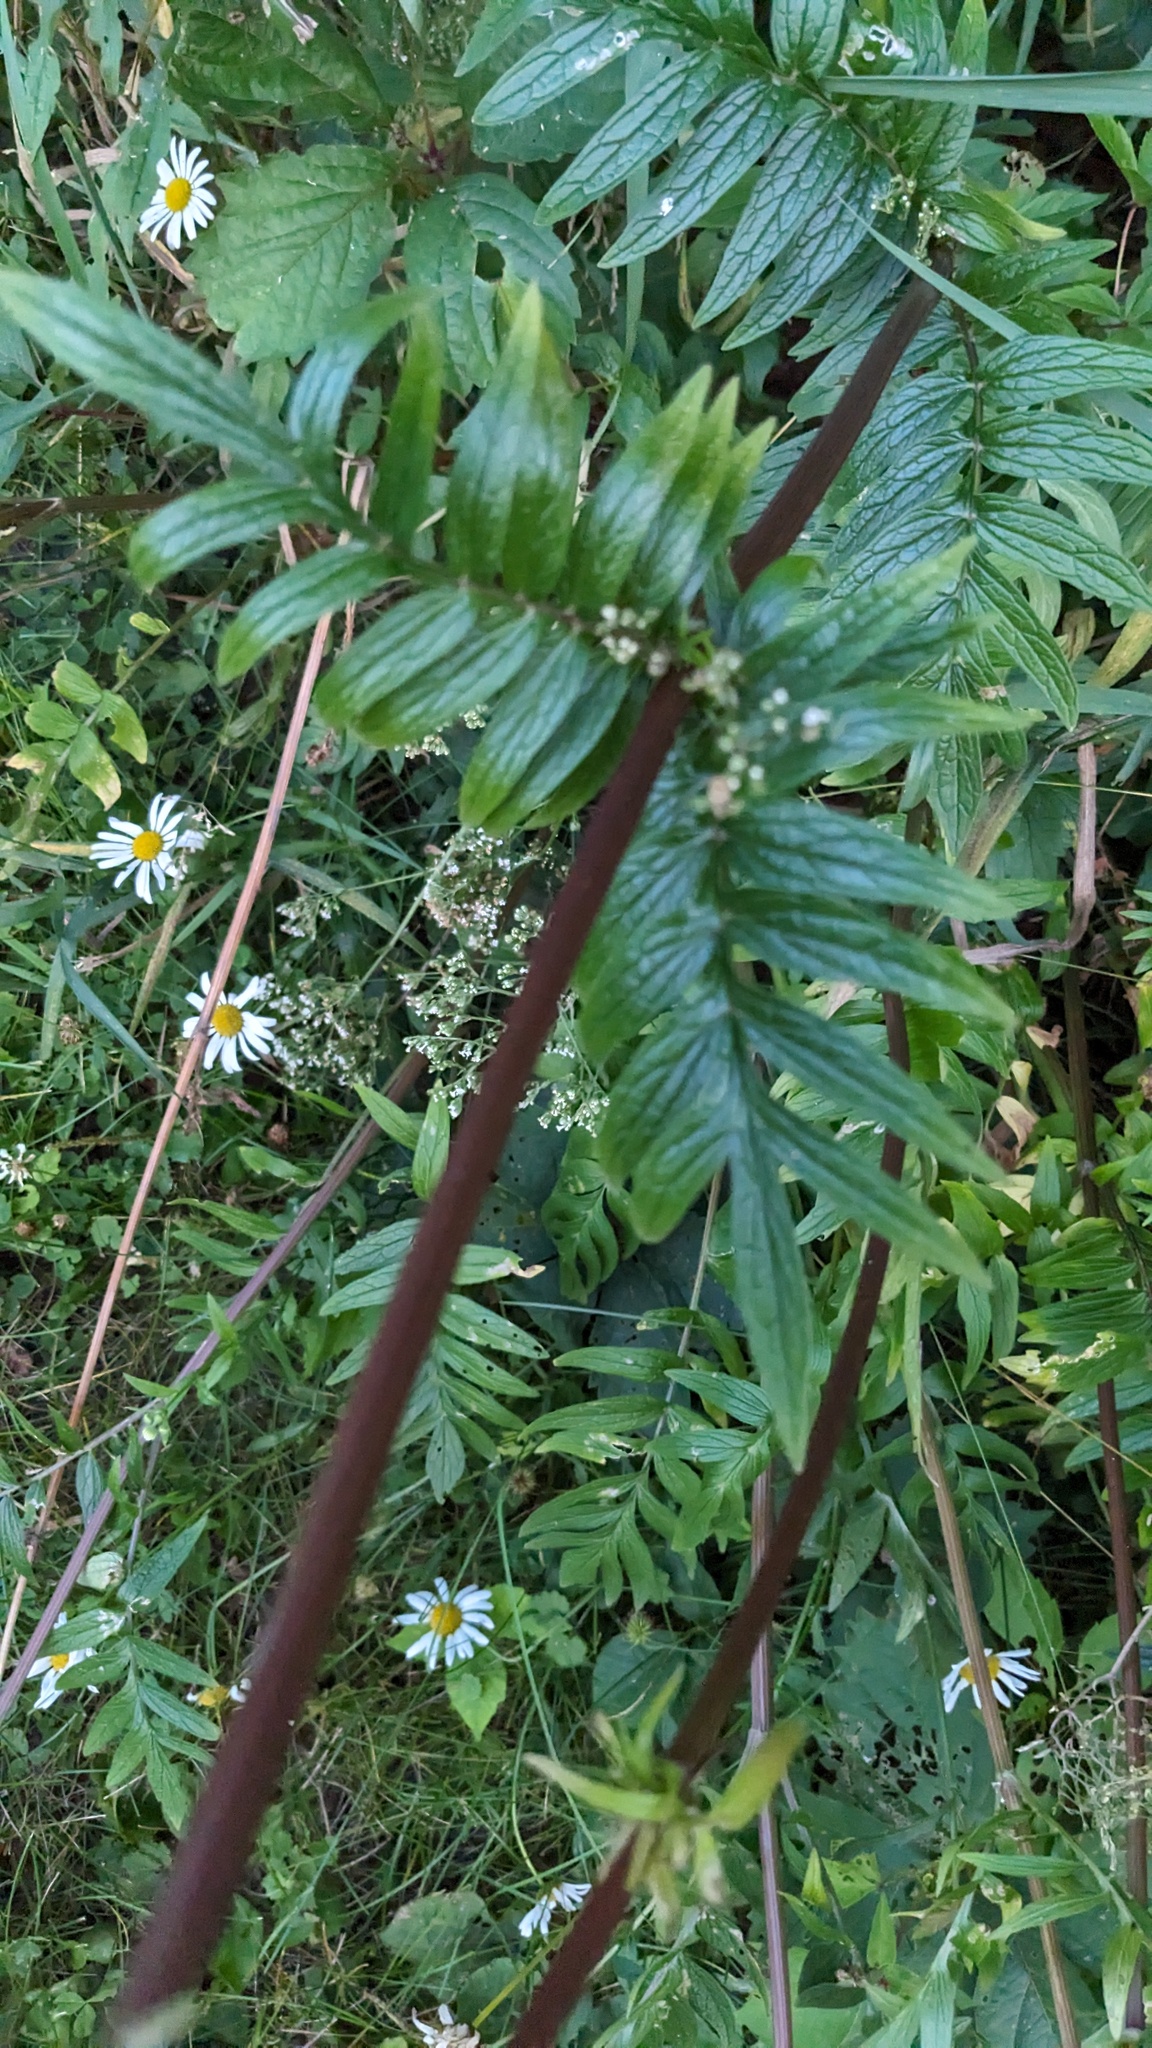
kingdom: Plantae
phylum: Tracheophyta
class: Magnoliopsida
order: Dipsacales
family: Caprifoliaceae
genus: Valeriana
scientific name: Valeriana officinalis
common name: Common valerian
